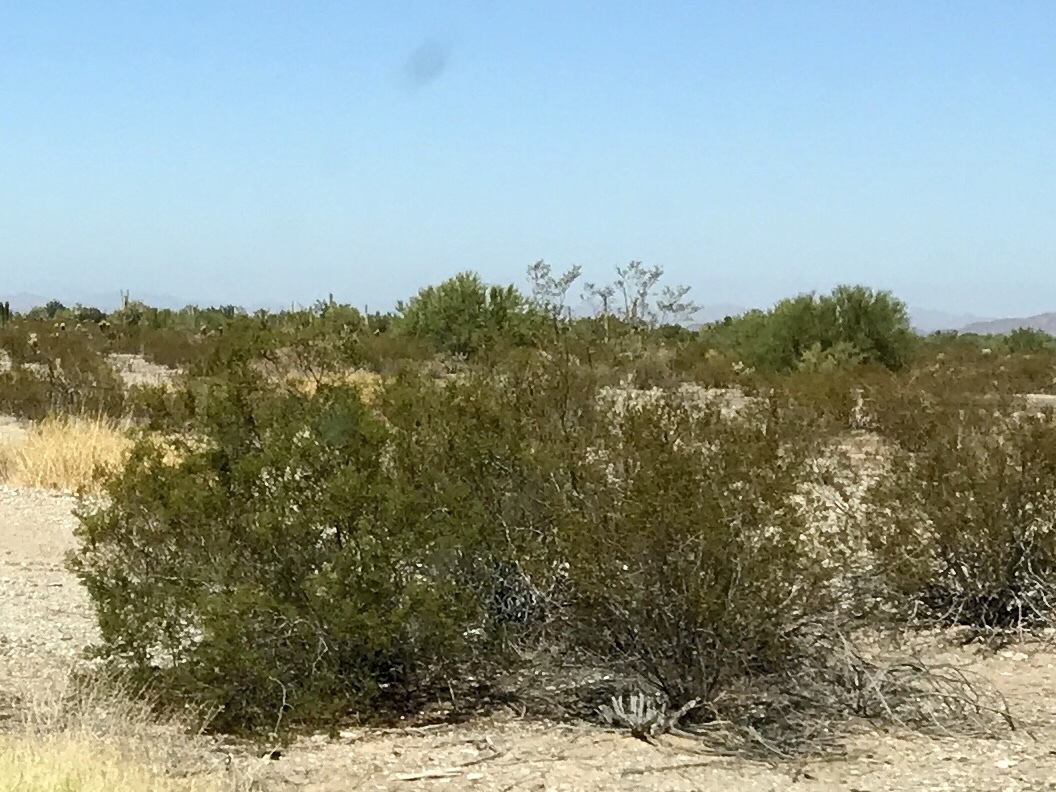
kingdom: Plantae
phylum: Tracheophyta
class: Magnoliopsida
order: Zygophyllales
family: Zygophyllaceae
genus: Larrea
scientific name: Larrea tridentata
